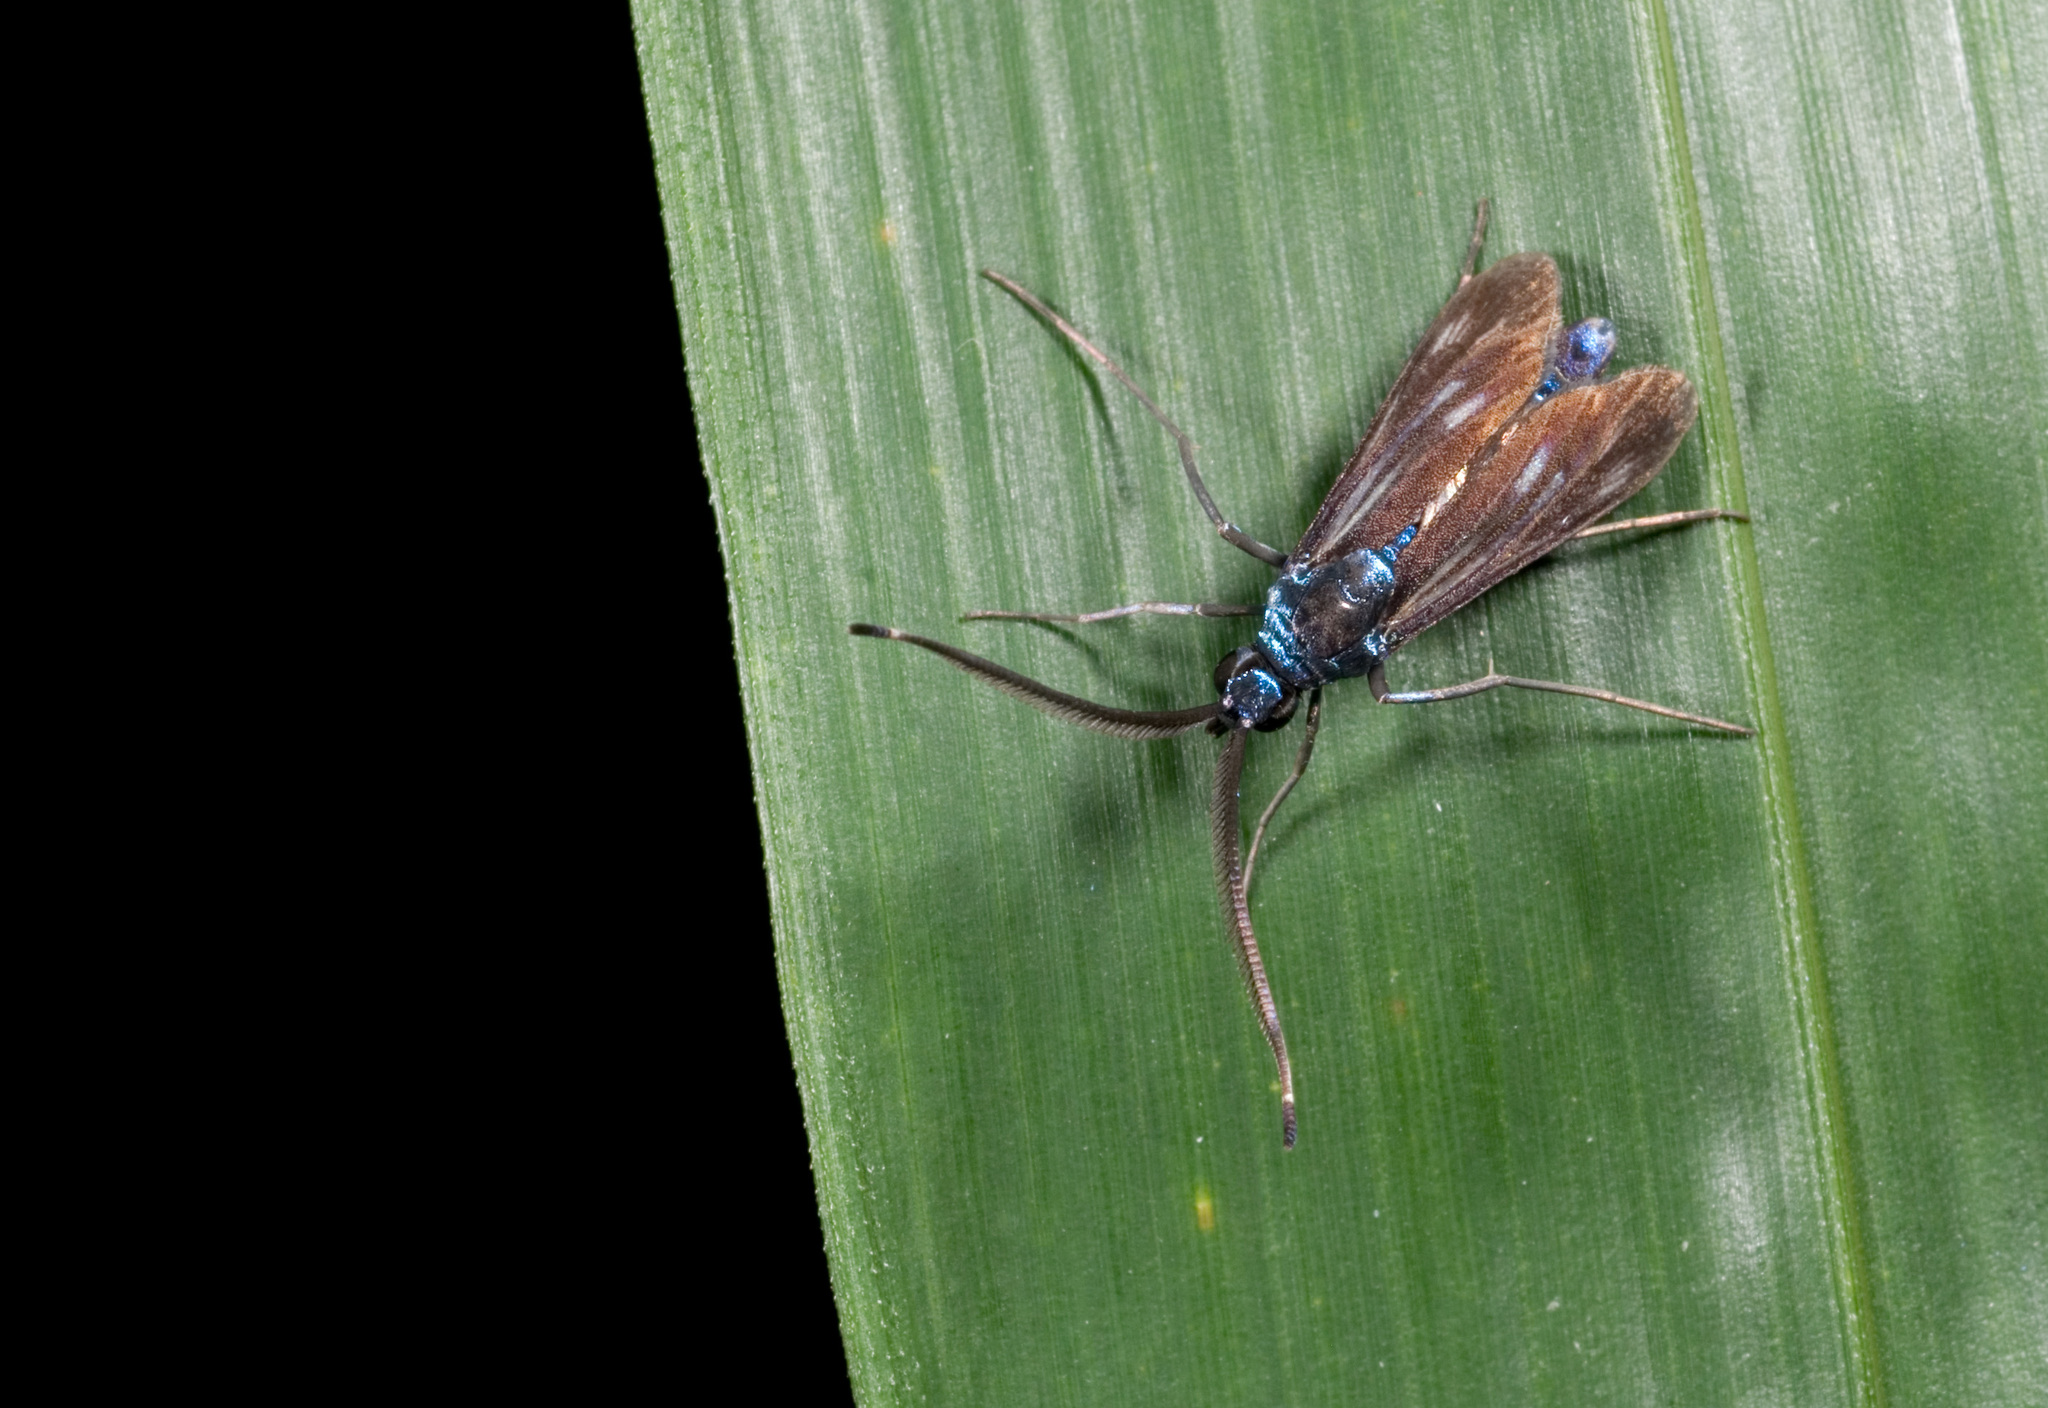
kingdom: Animalia
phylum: Arthropoda
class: Insecta
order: Lepidoptera
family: Zygaenidae
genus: Artona
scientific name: Artona Balataea taiwana
